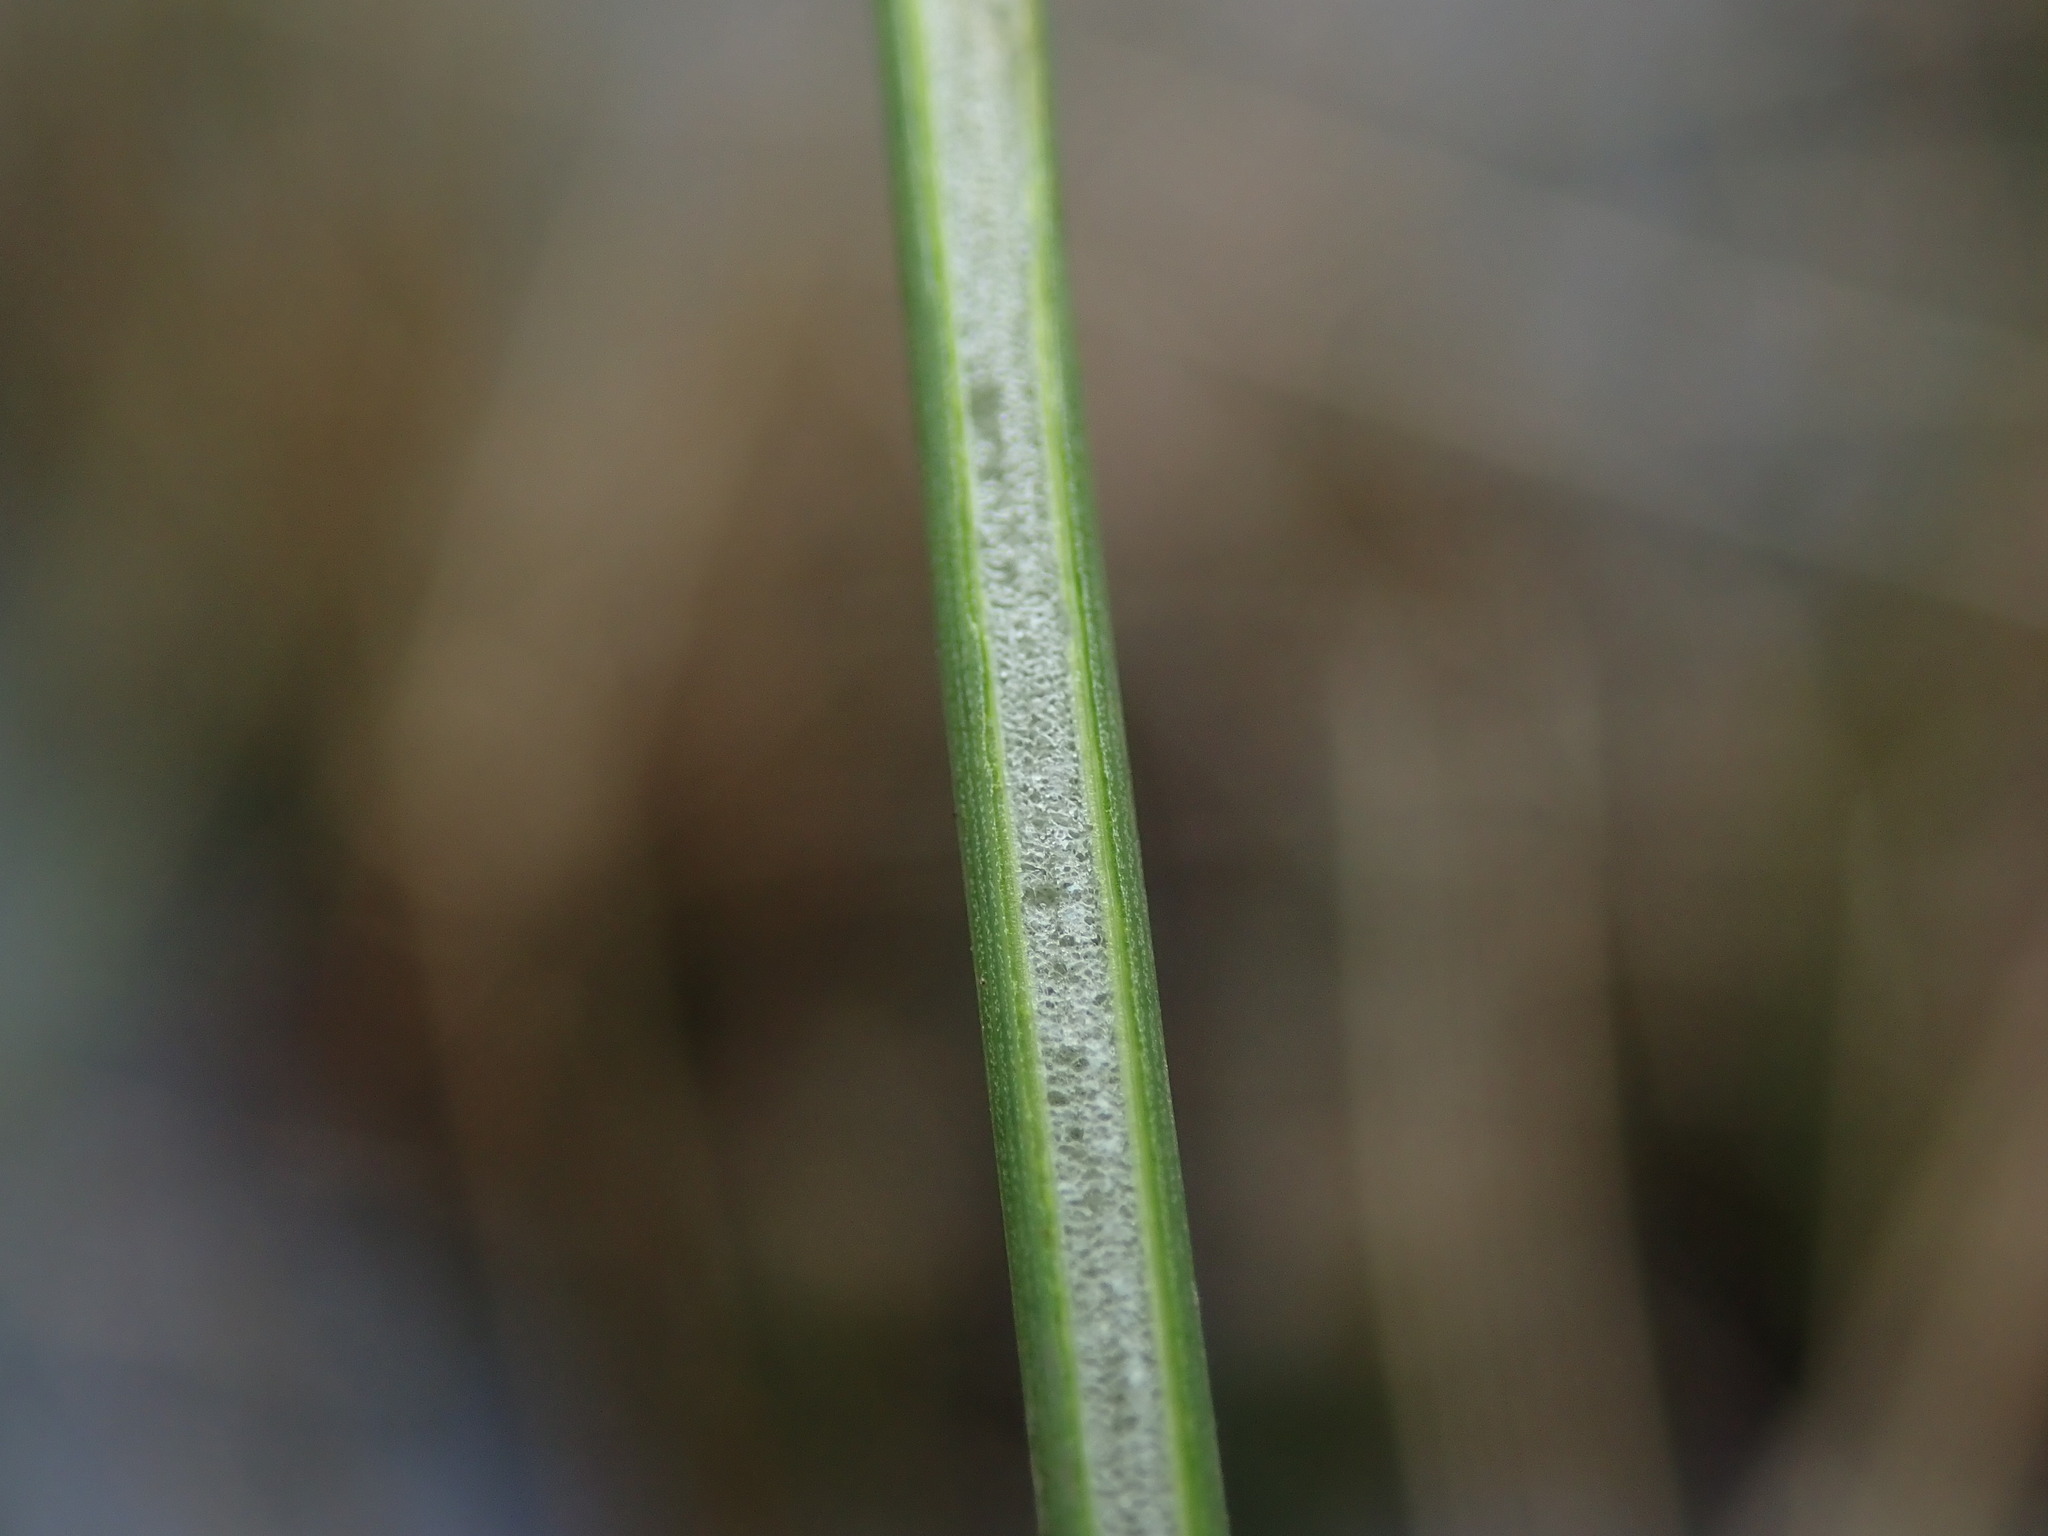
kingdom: Plantae
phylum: Tracheophyta
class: Liliopsida
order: Poales
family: Juncaceae
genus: Juncus
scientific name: Juncus effusus
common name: Soft rush
